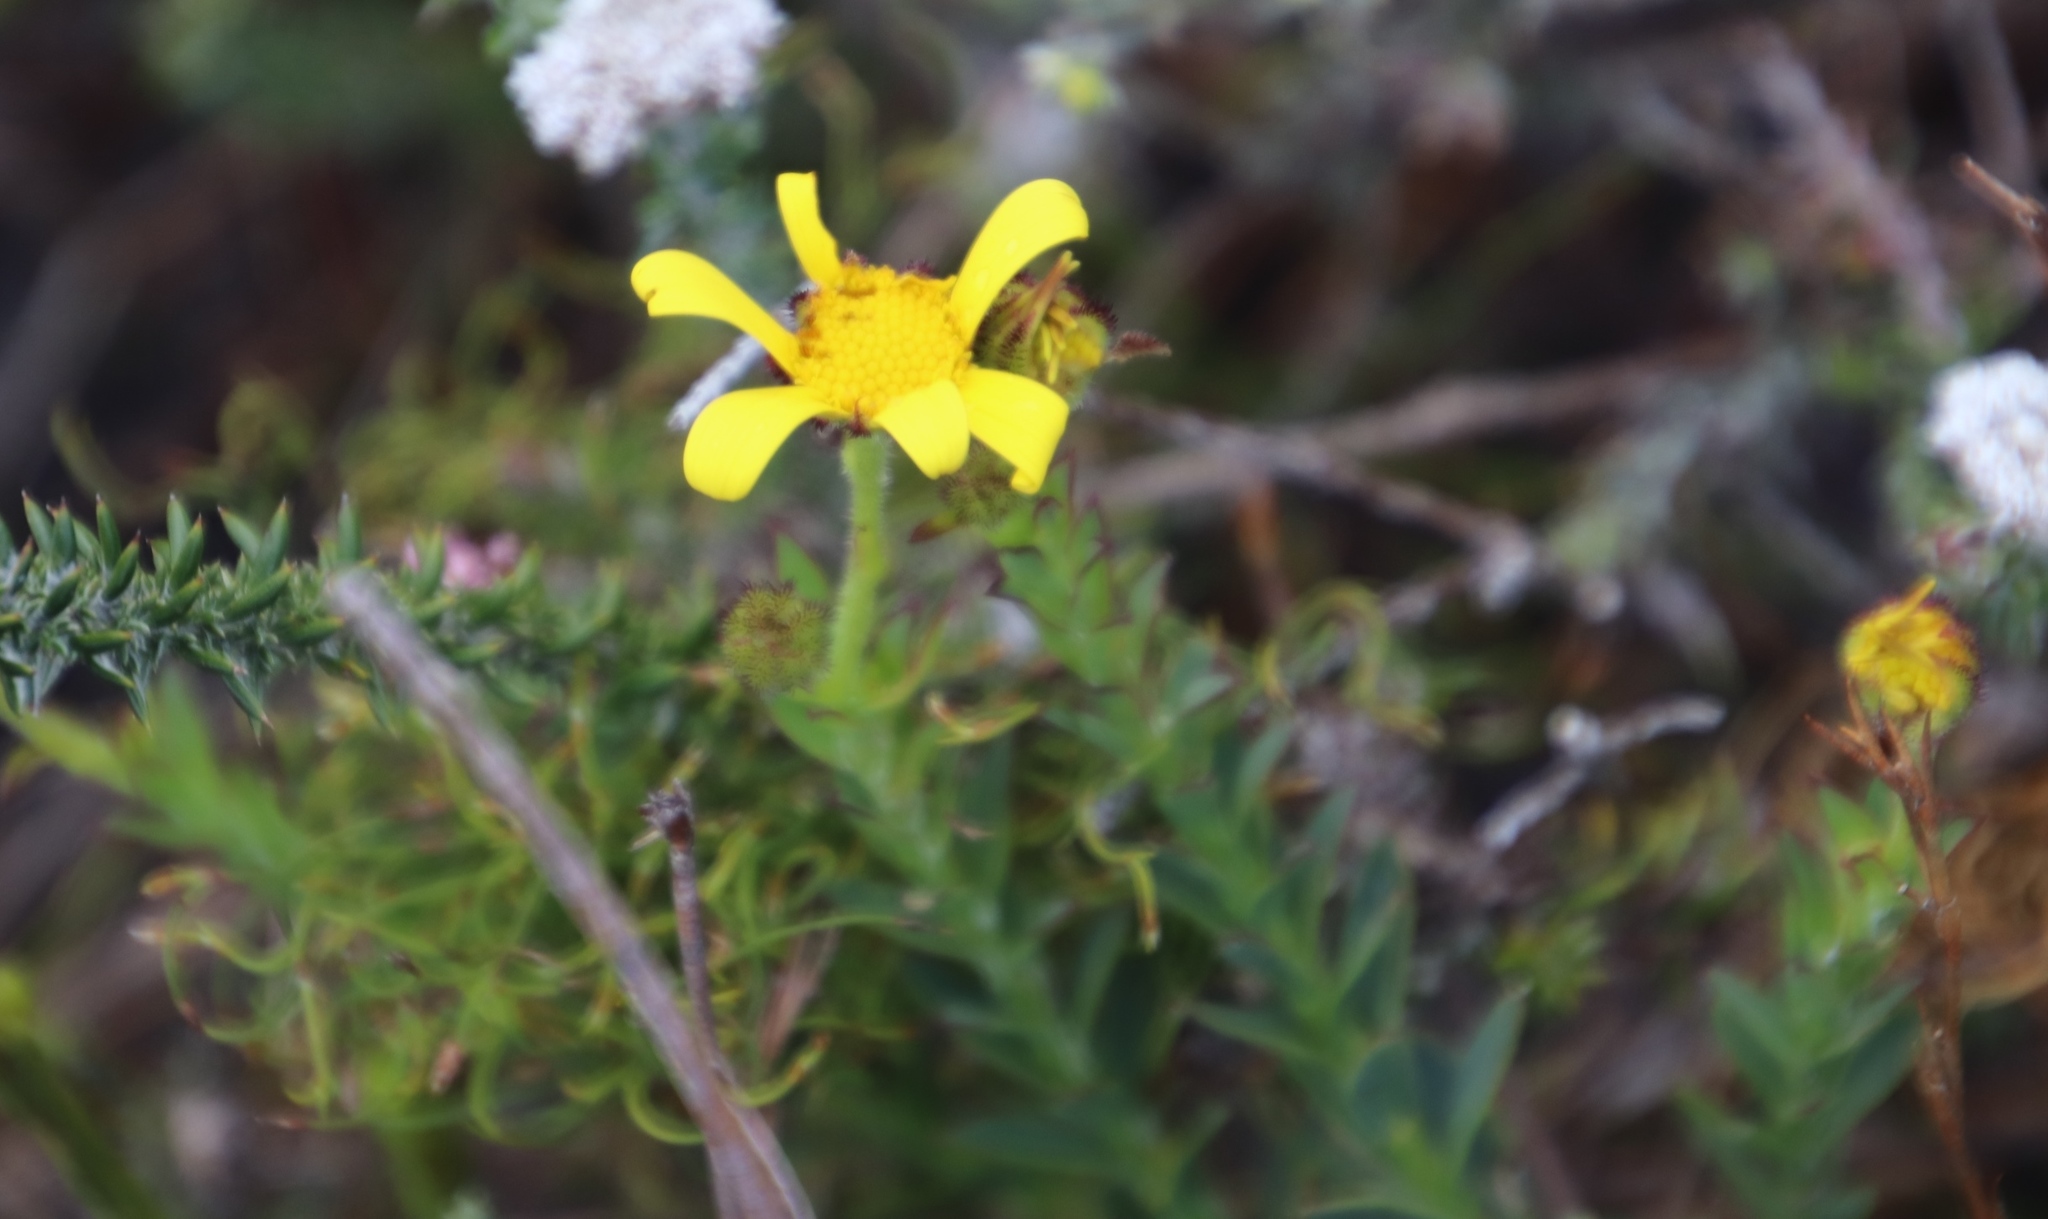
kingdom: Plantae
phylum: Tracheophyta
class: Magnoliopsida
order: Asterales
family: Asteraceae
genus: Osteospermum
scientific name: Osteospermum polygaloides
